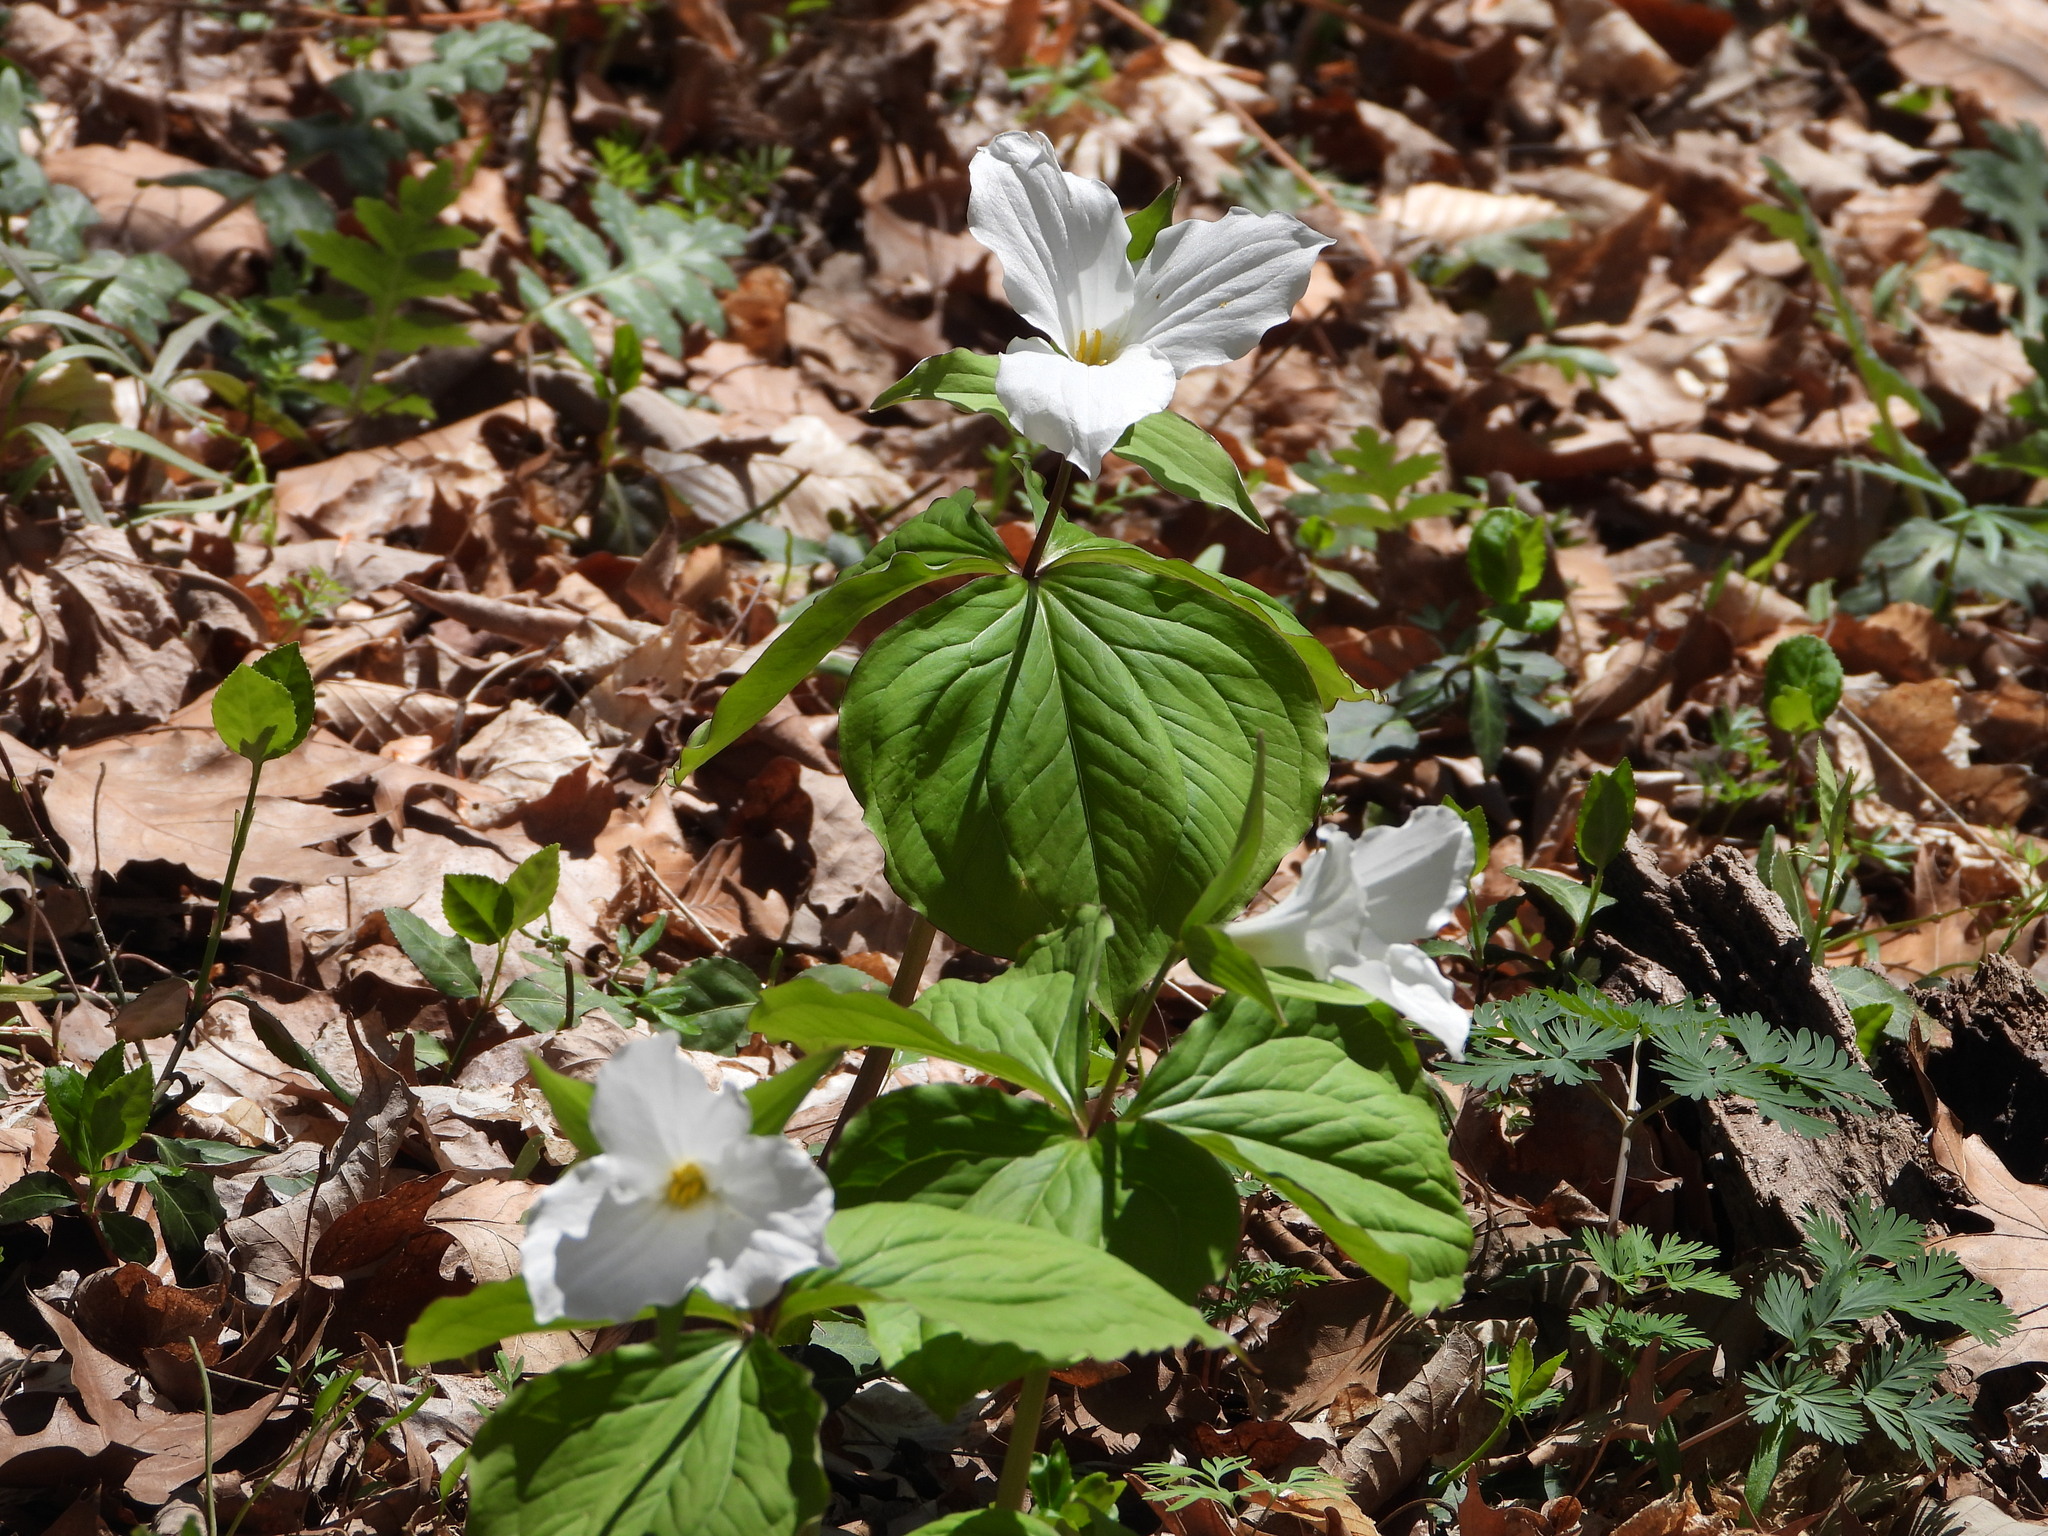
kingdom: Plantae
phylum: Tracheophyta
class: Liliopsida
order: Liliales
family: Melanthiaceae
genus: Trillium
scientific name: Trillium grandiflorum
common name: Great white trillium
